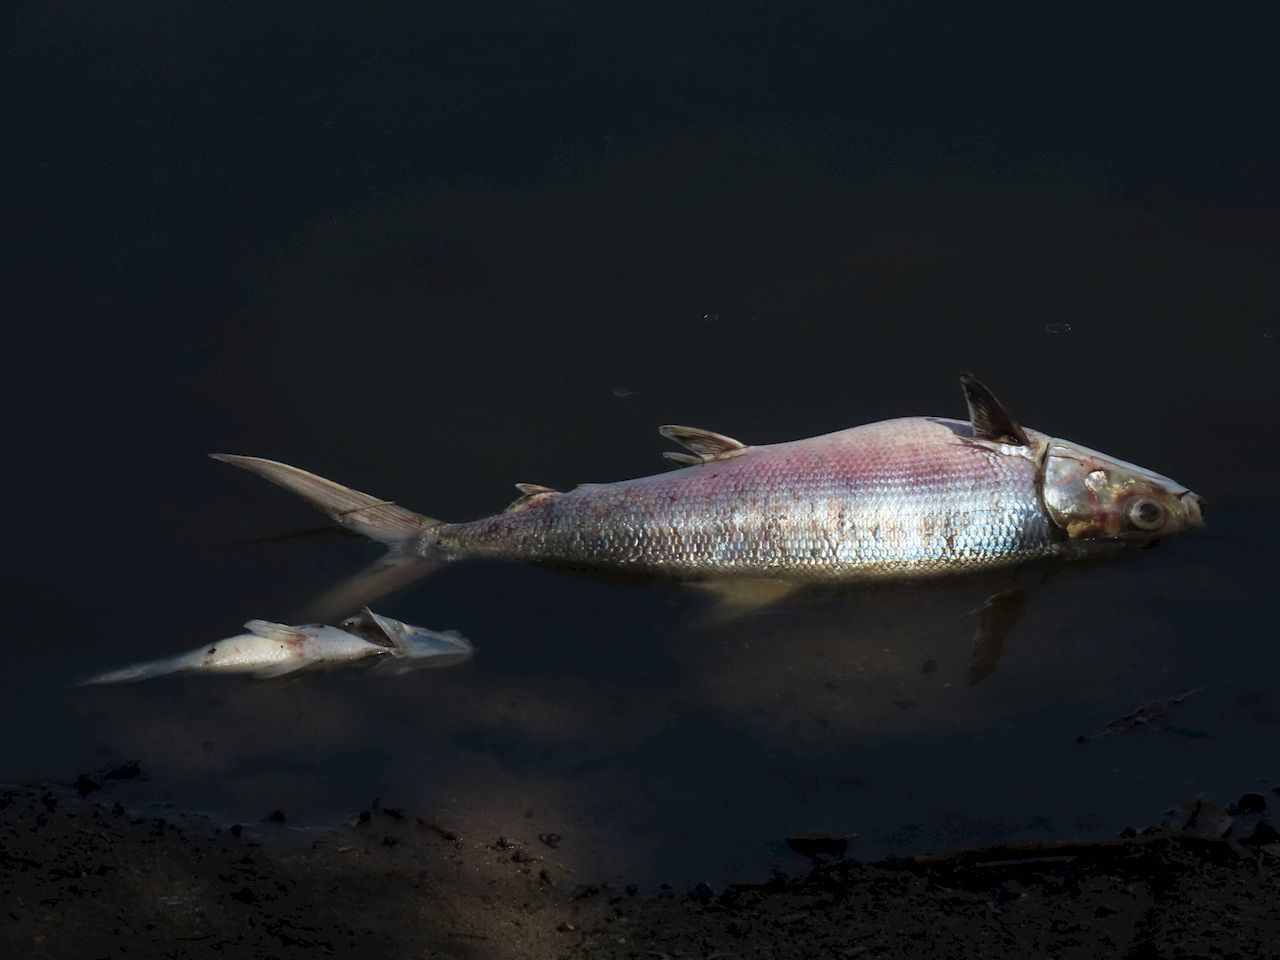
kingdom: Animalia
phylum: Chordata
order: Gonorynchiformes
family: Chanidae
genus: Chanos
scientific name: Chanos chanos
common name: Milkfish
